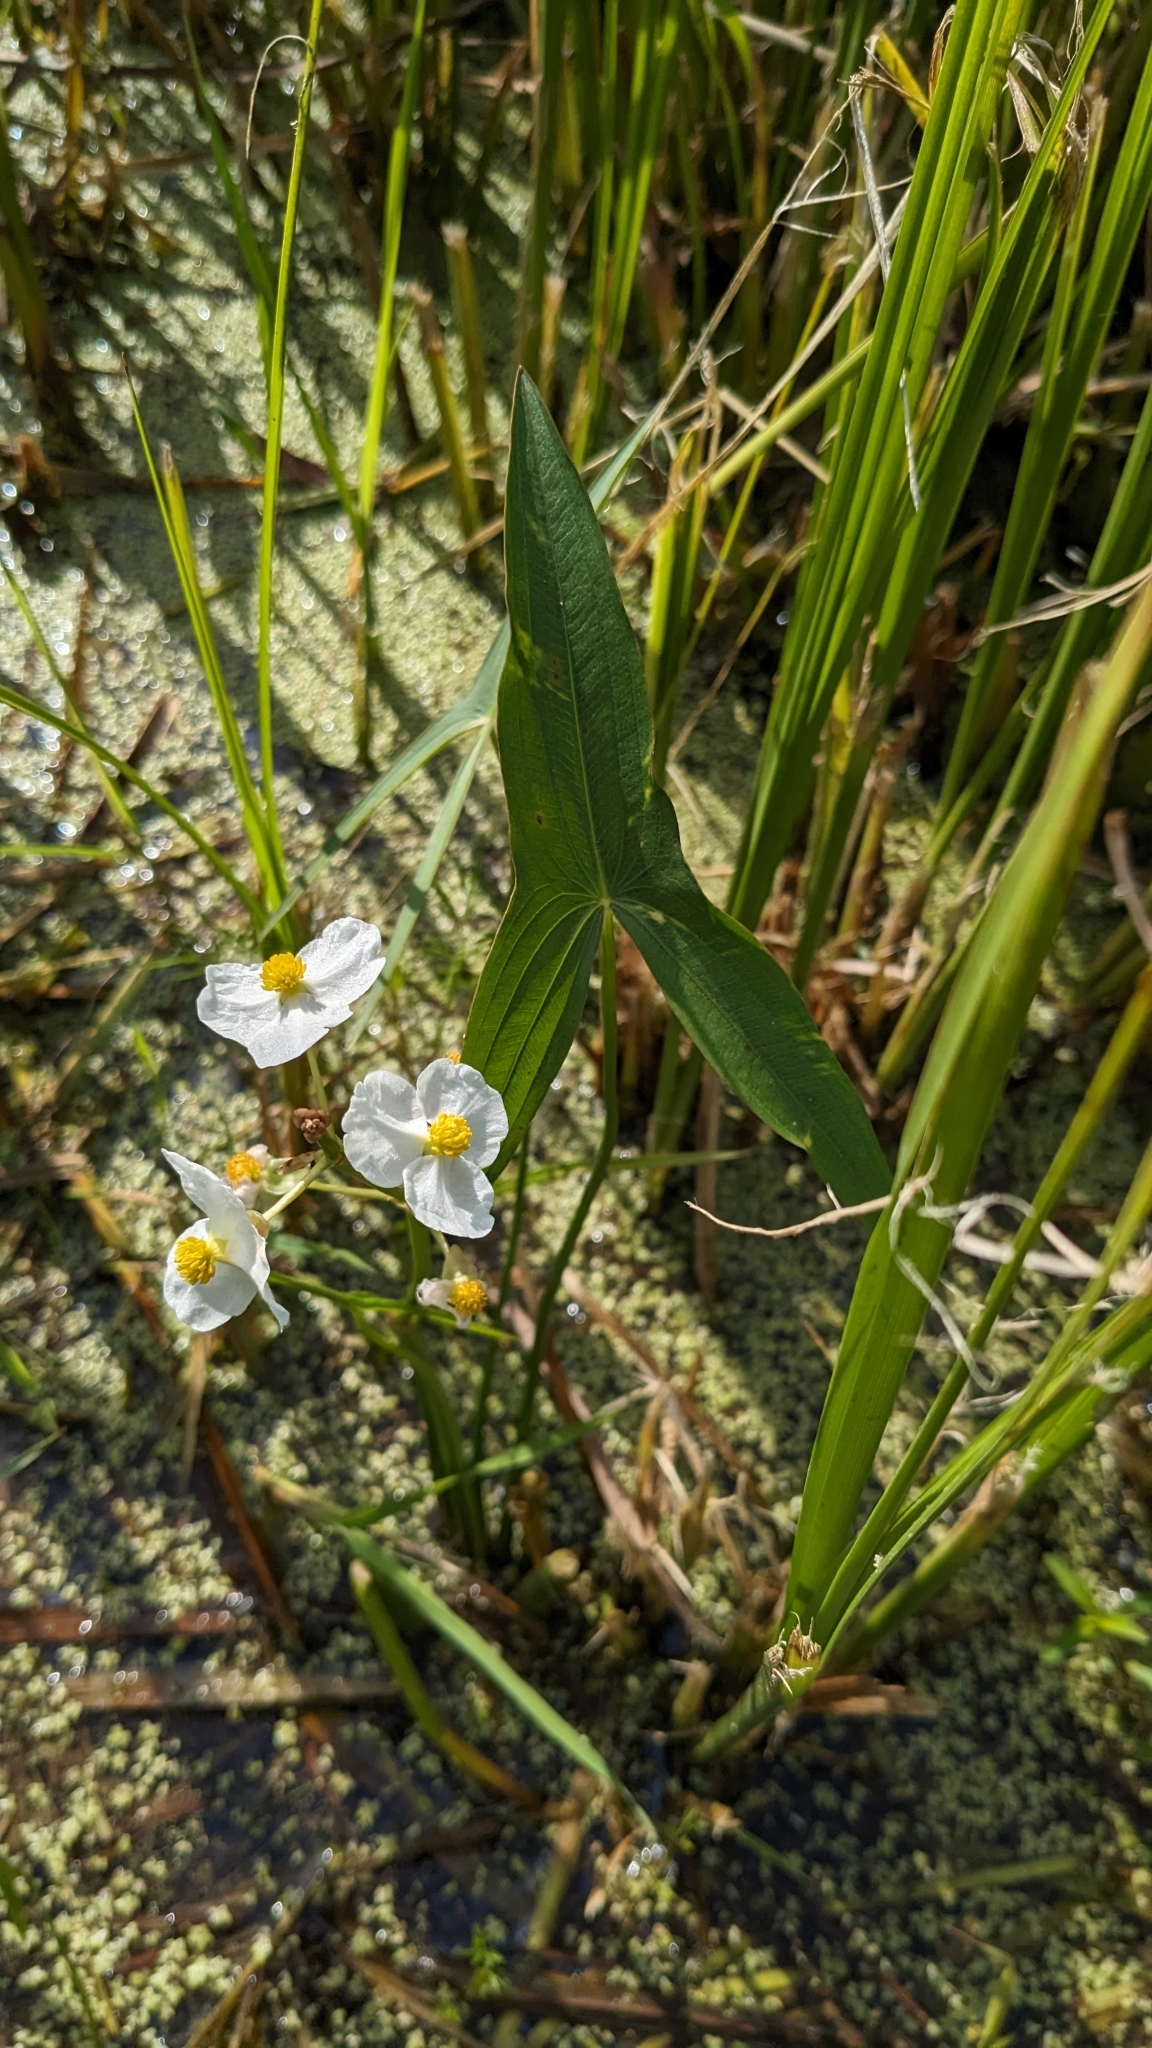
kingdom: Plantae
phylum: Tracheophyta
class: Liliopsida
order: Alismatales
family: Alismataceae
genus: Sagittaria
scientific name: Sagittaria latifolia
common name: Duck-potato
